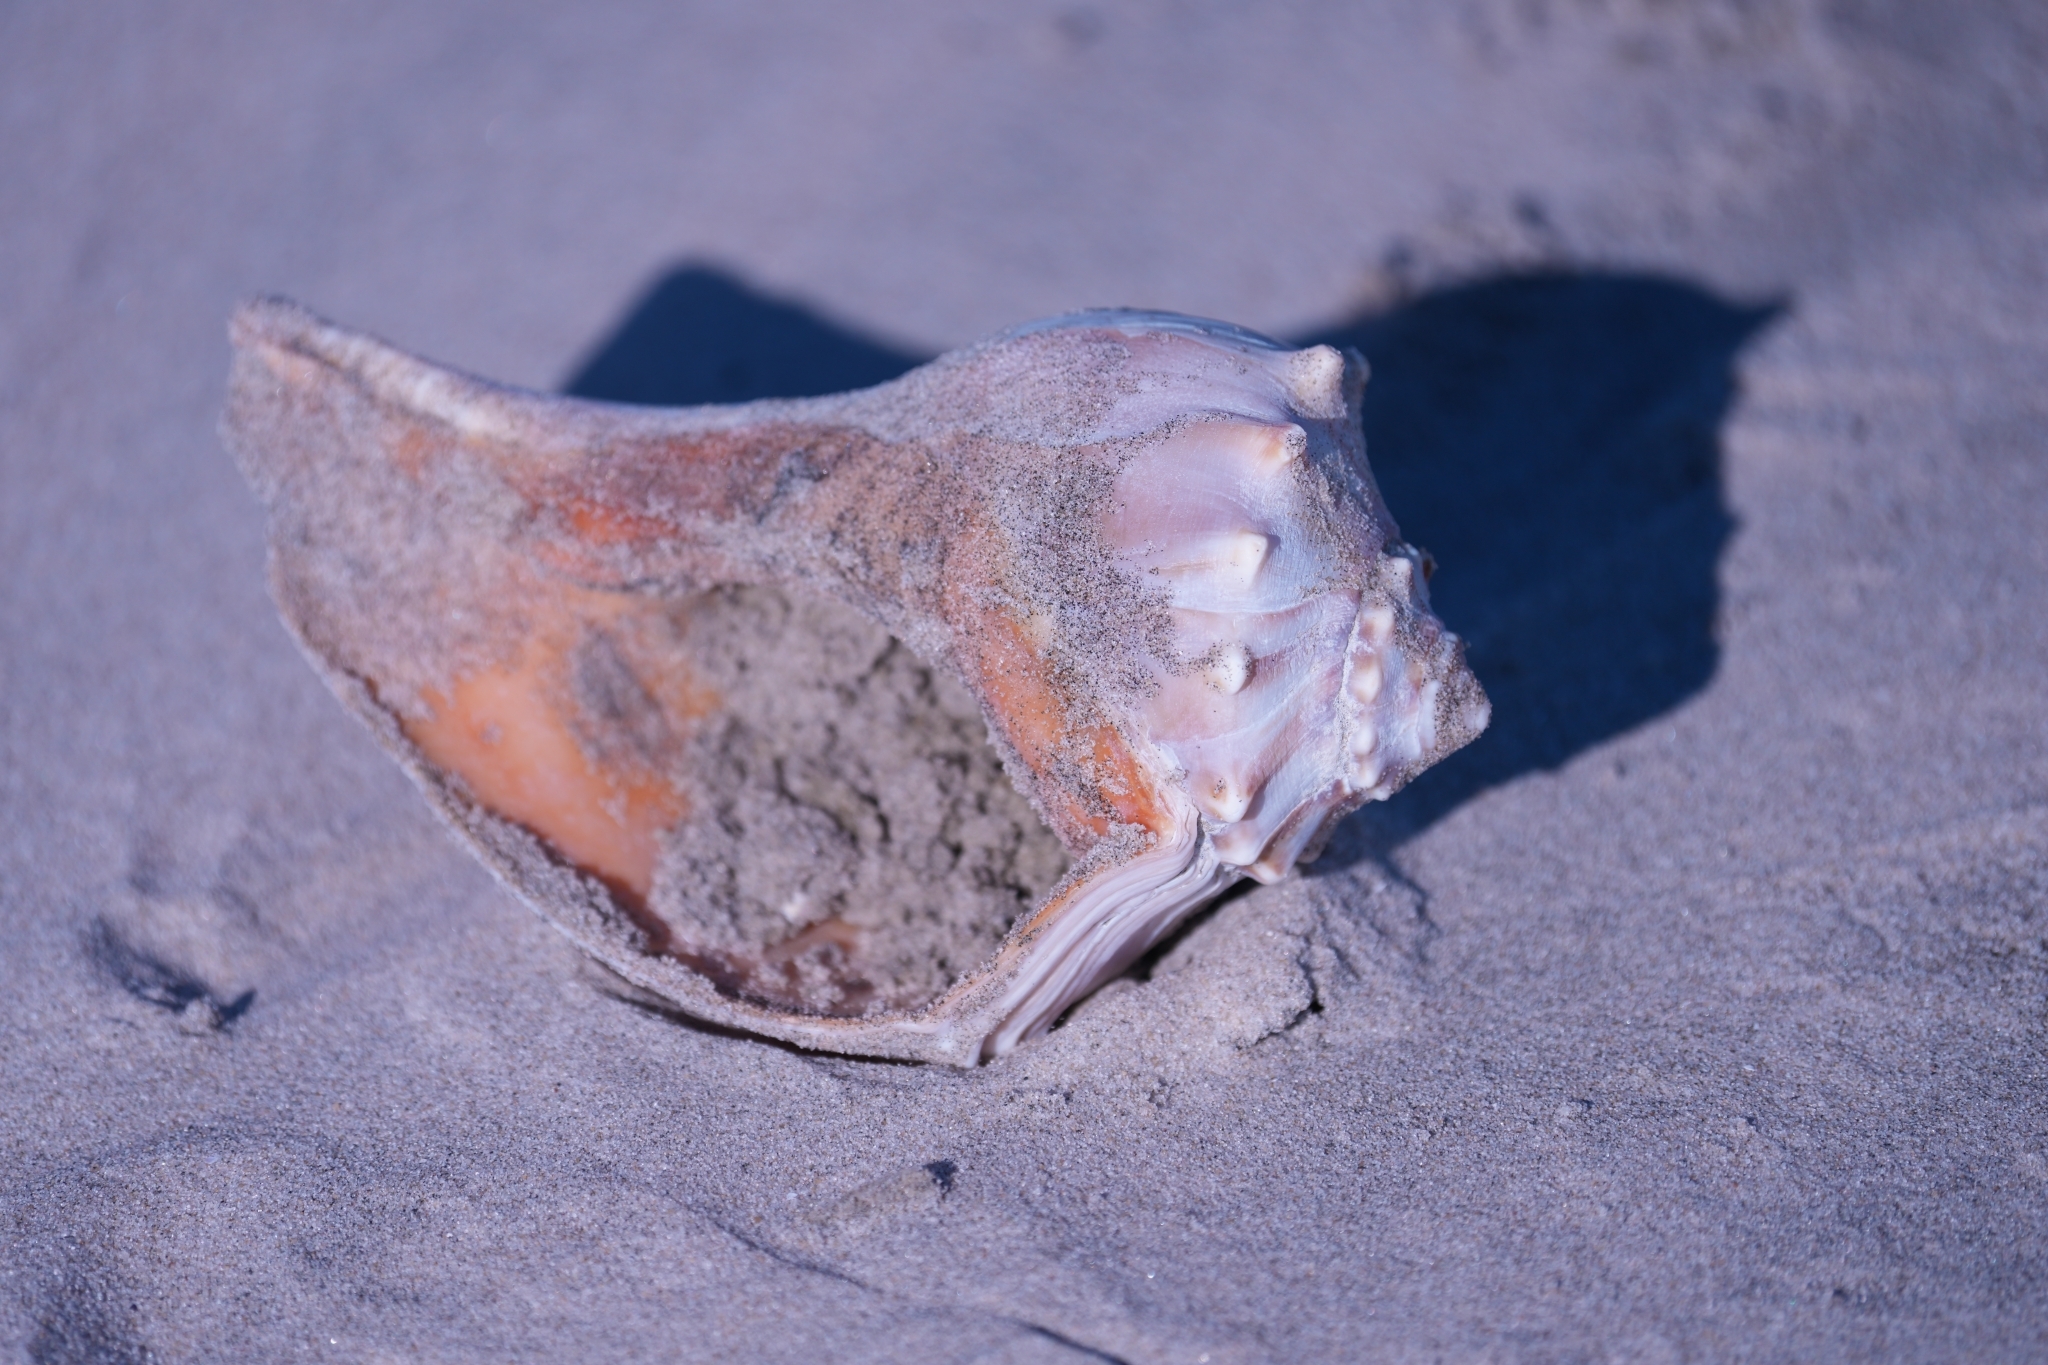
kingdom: Animalia
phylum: Mollusca
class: Gastropoda
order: Neogastropoda
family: Busyconidae
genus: Busycon
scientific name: Busycon carica
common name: Knobbed whelk
